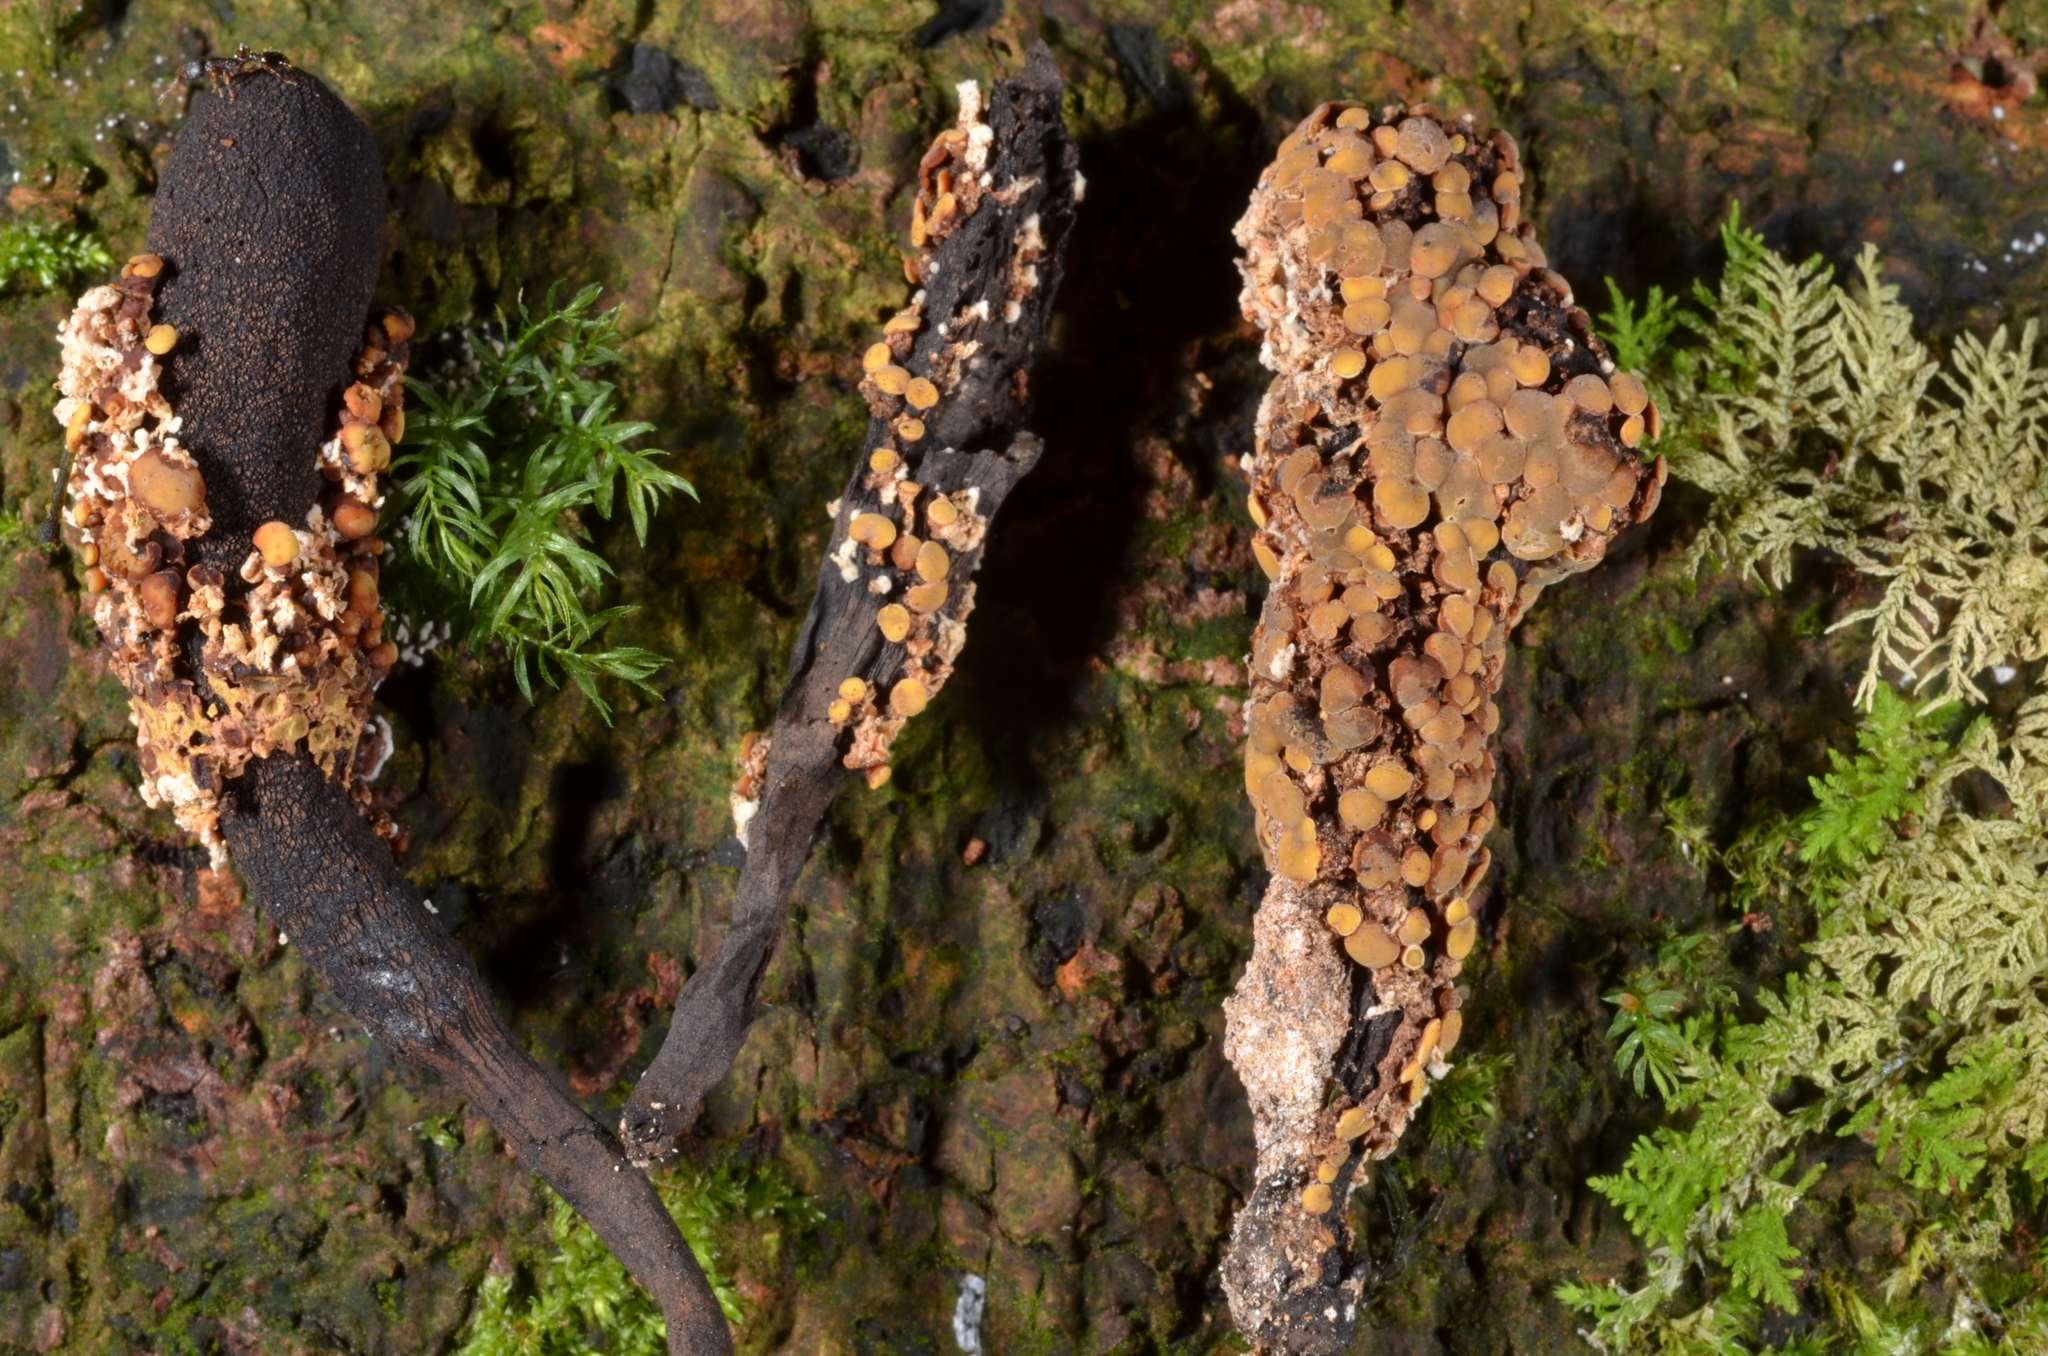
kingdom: Fungi
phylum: Ascomycota
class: Leotiomycetes
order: Helotiales
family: Cenangiaceae
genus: Encoelia
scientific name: Encoelia cubensis
